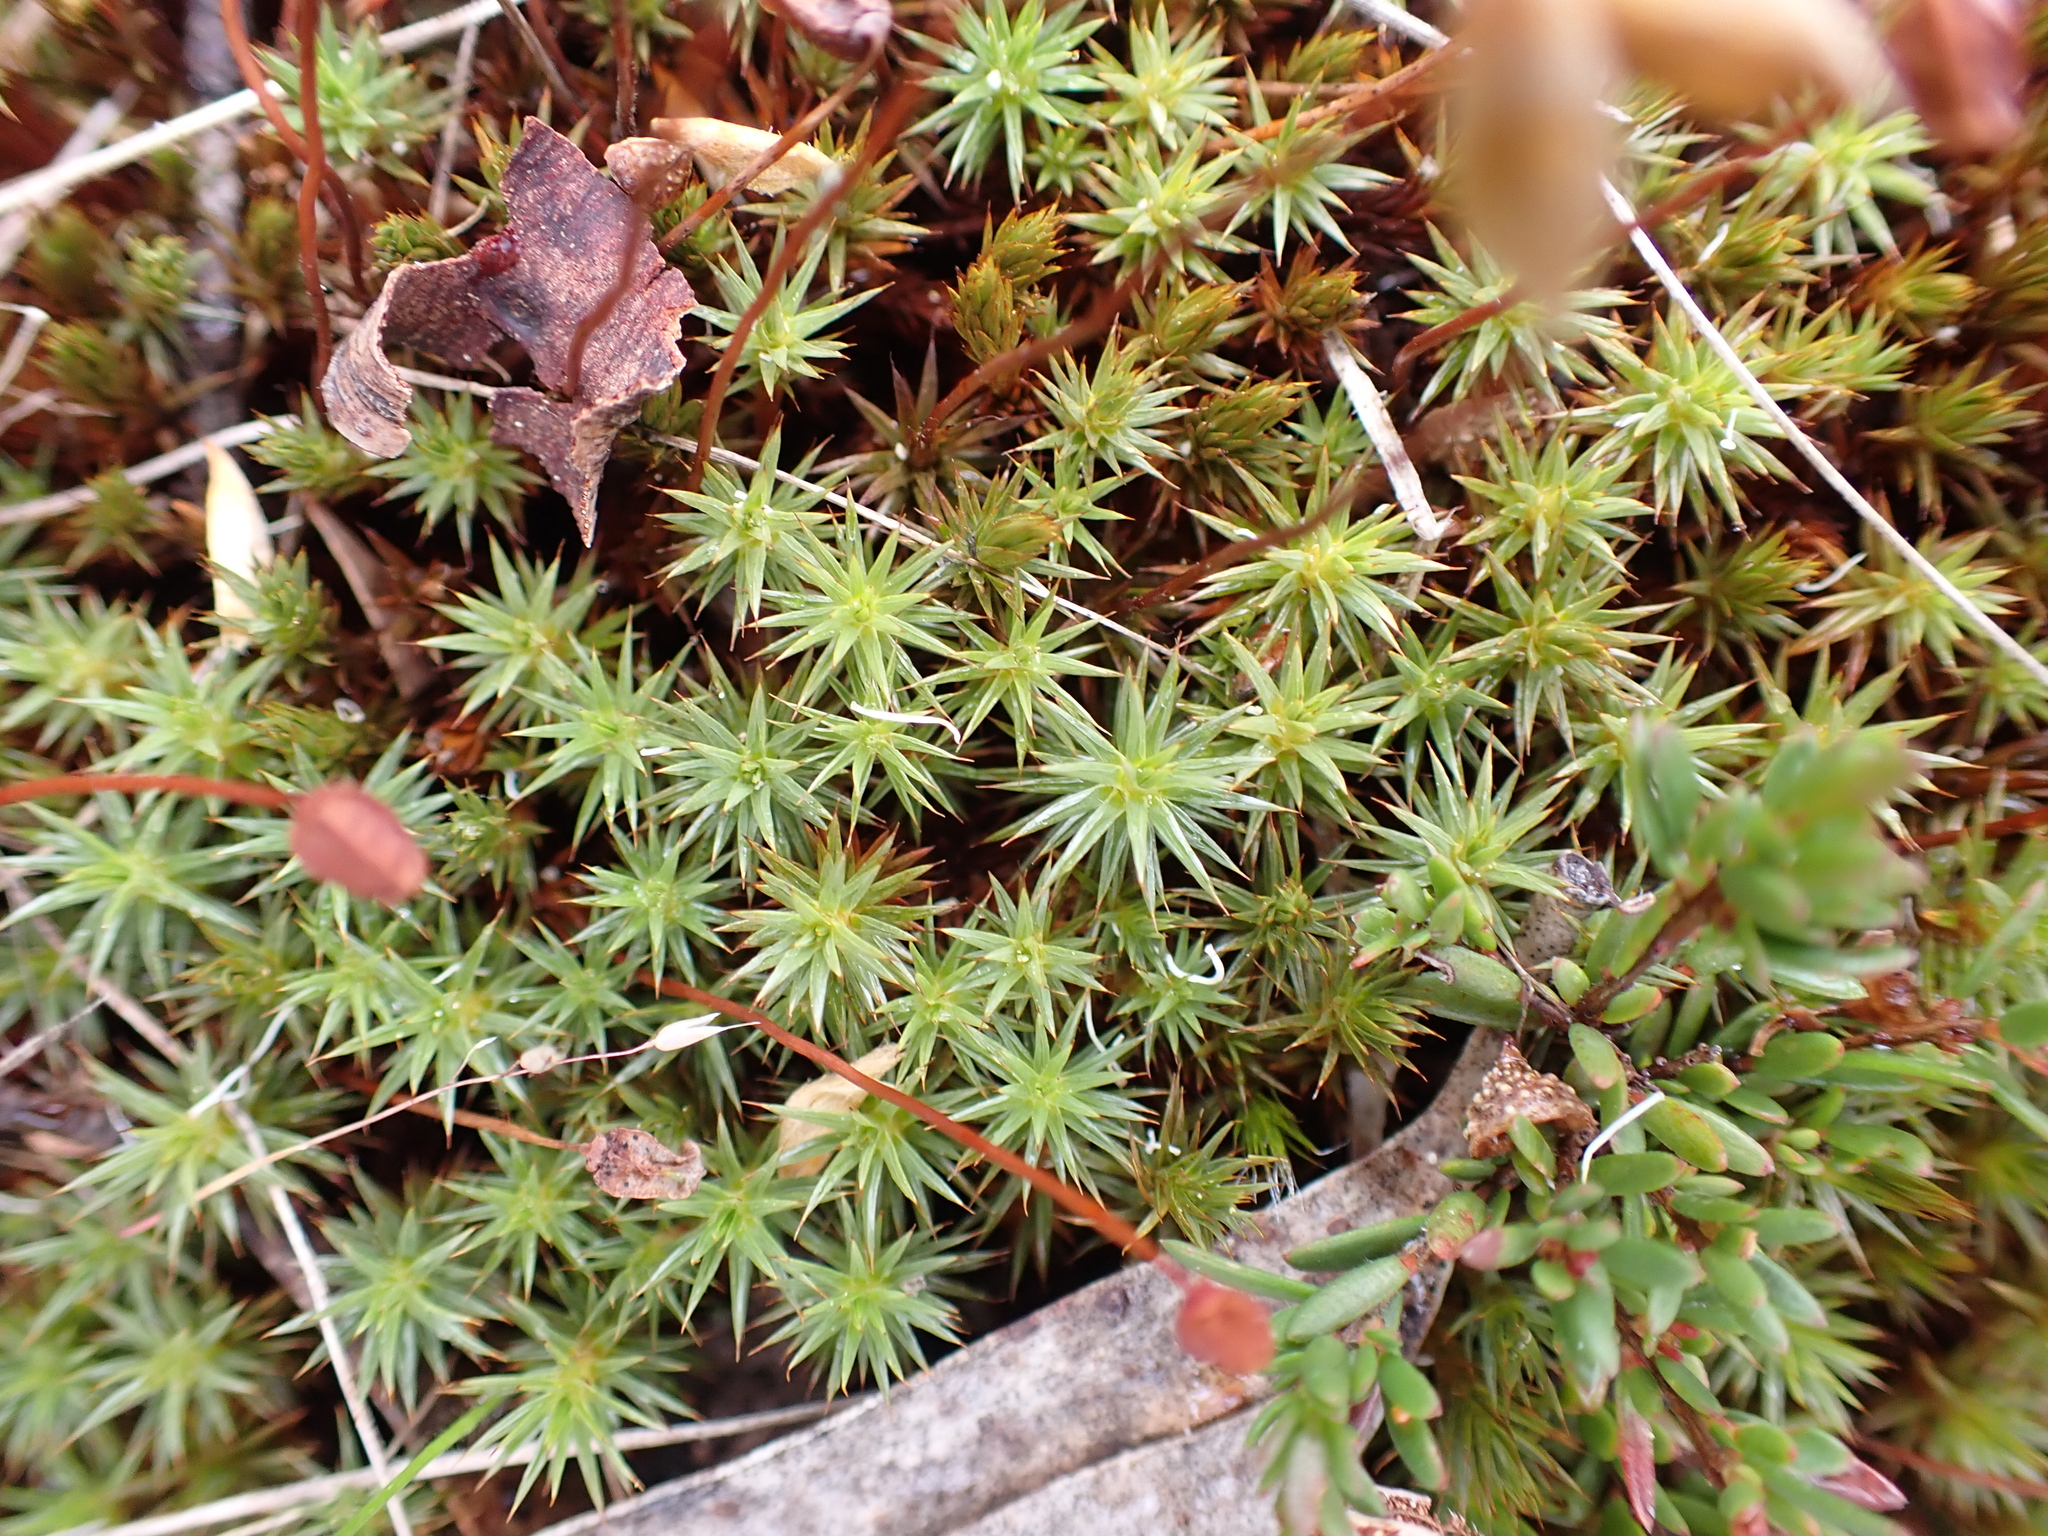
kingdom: Plantae
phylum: Bryophyta
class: Polytrichopsida
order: Polytrichales
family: Polytrichaceae
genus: Polytrichum
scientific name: Polytrichum juniperinum
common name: Juniper haircap moss
